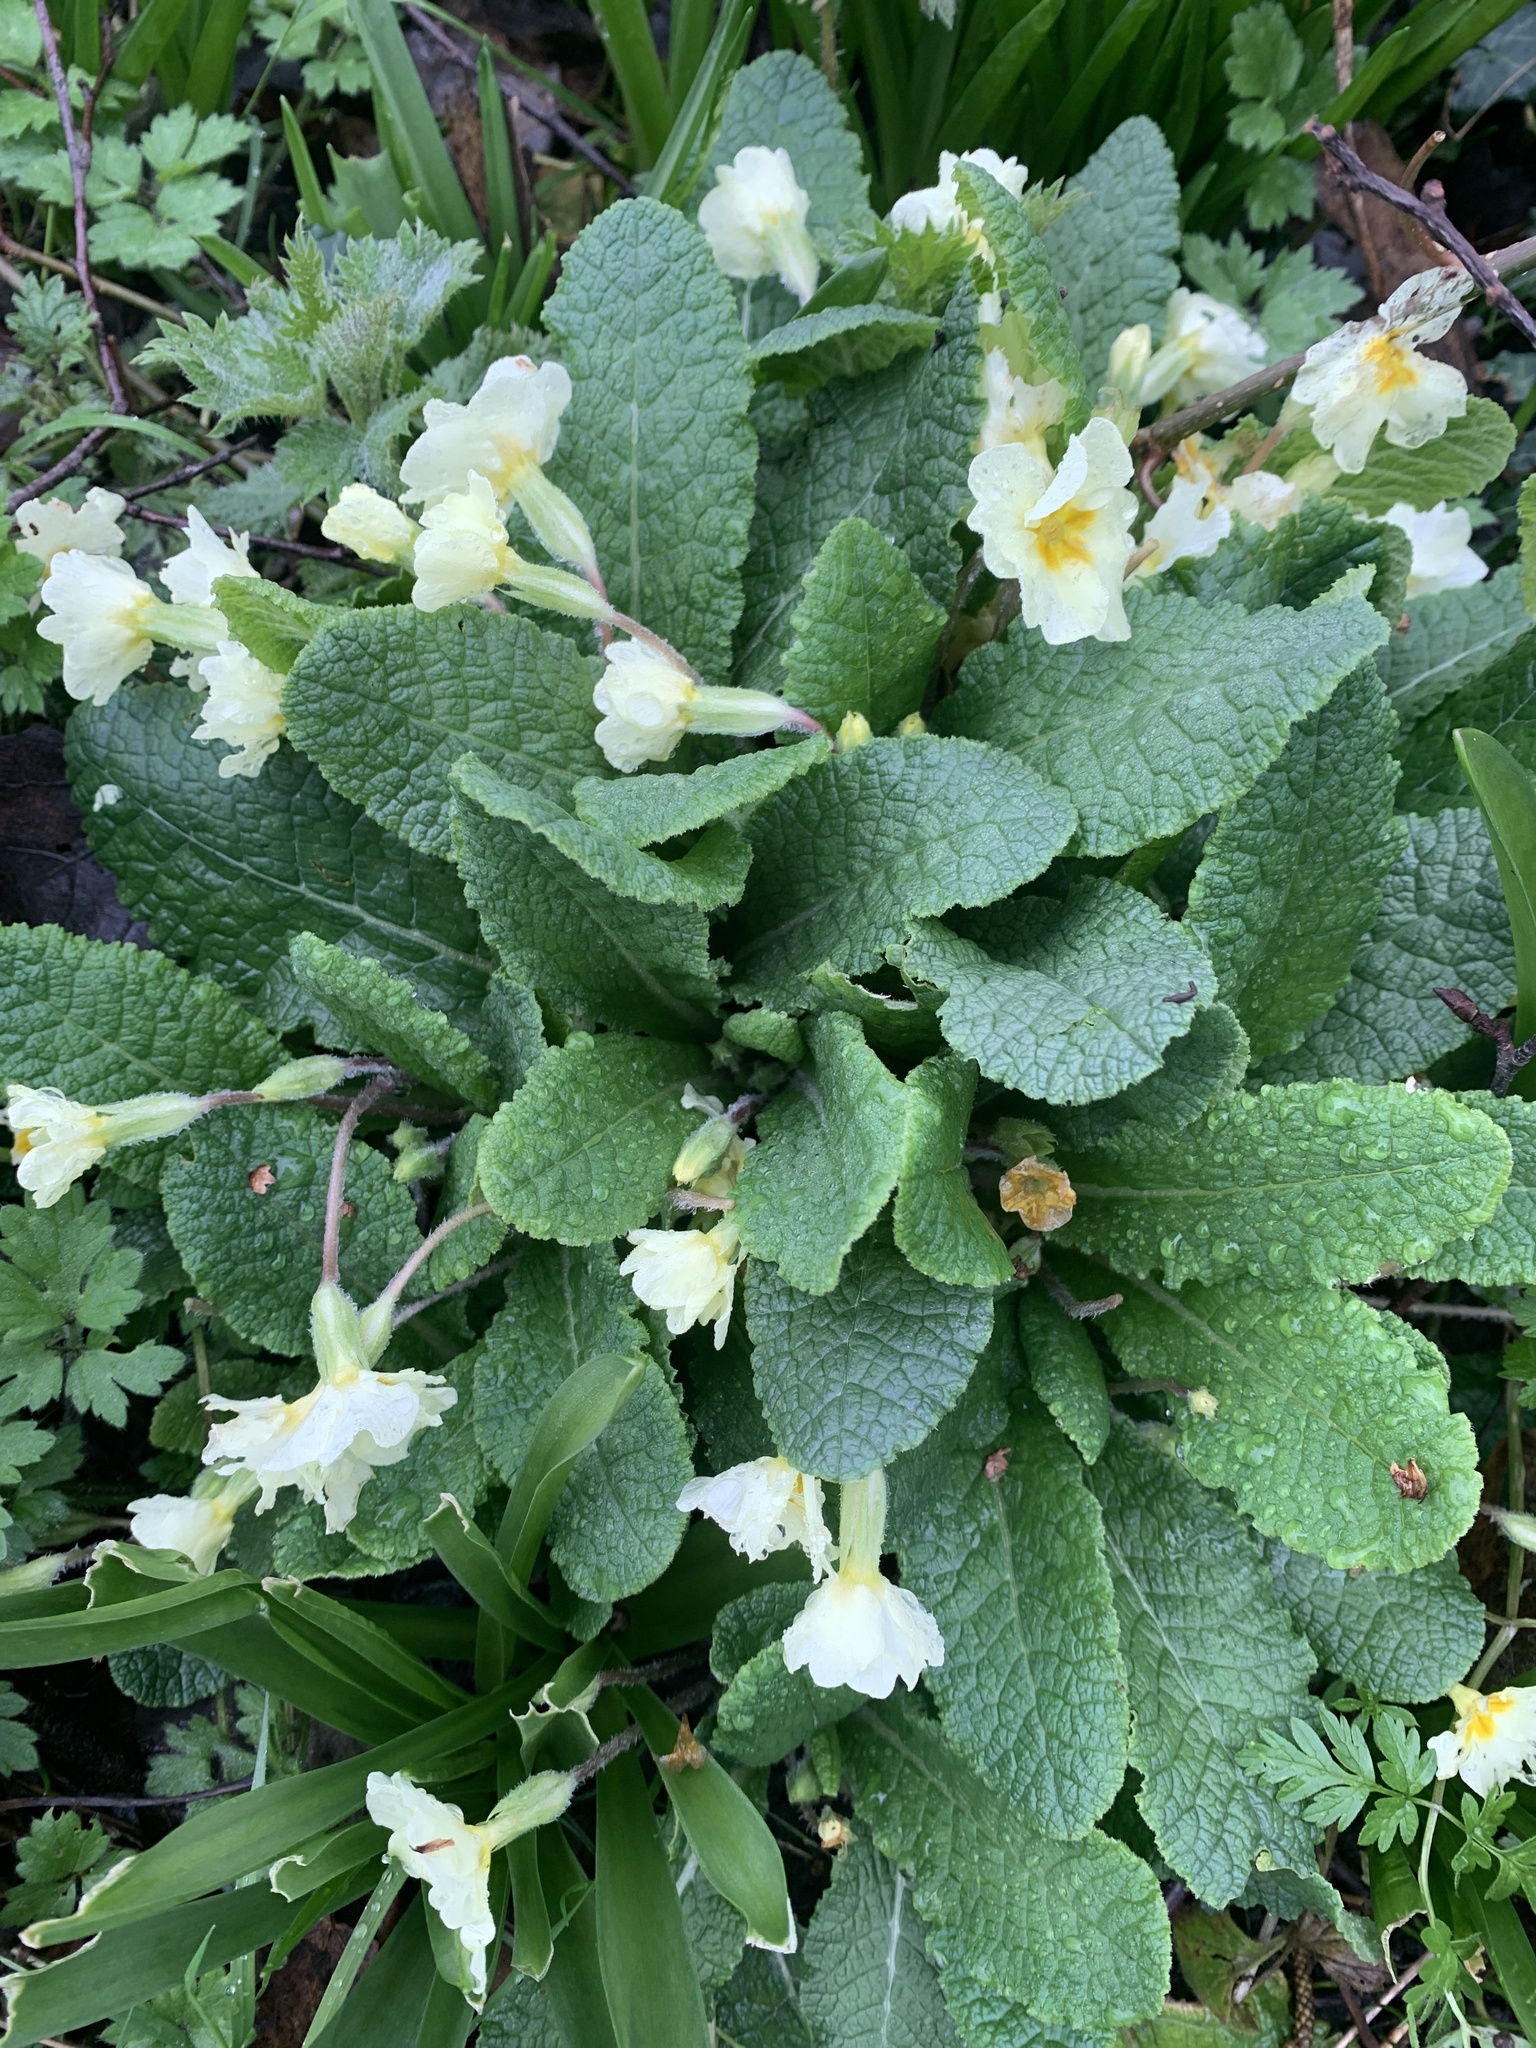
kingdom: Plantae
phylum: Tracheophyta
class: Magnoliopsida
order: Ericales
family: Primulaceae
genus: Primula
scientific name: Primula vulgaris
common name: Primrose
